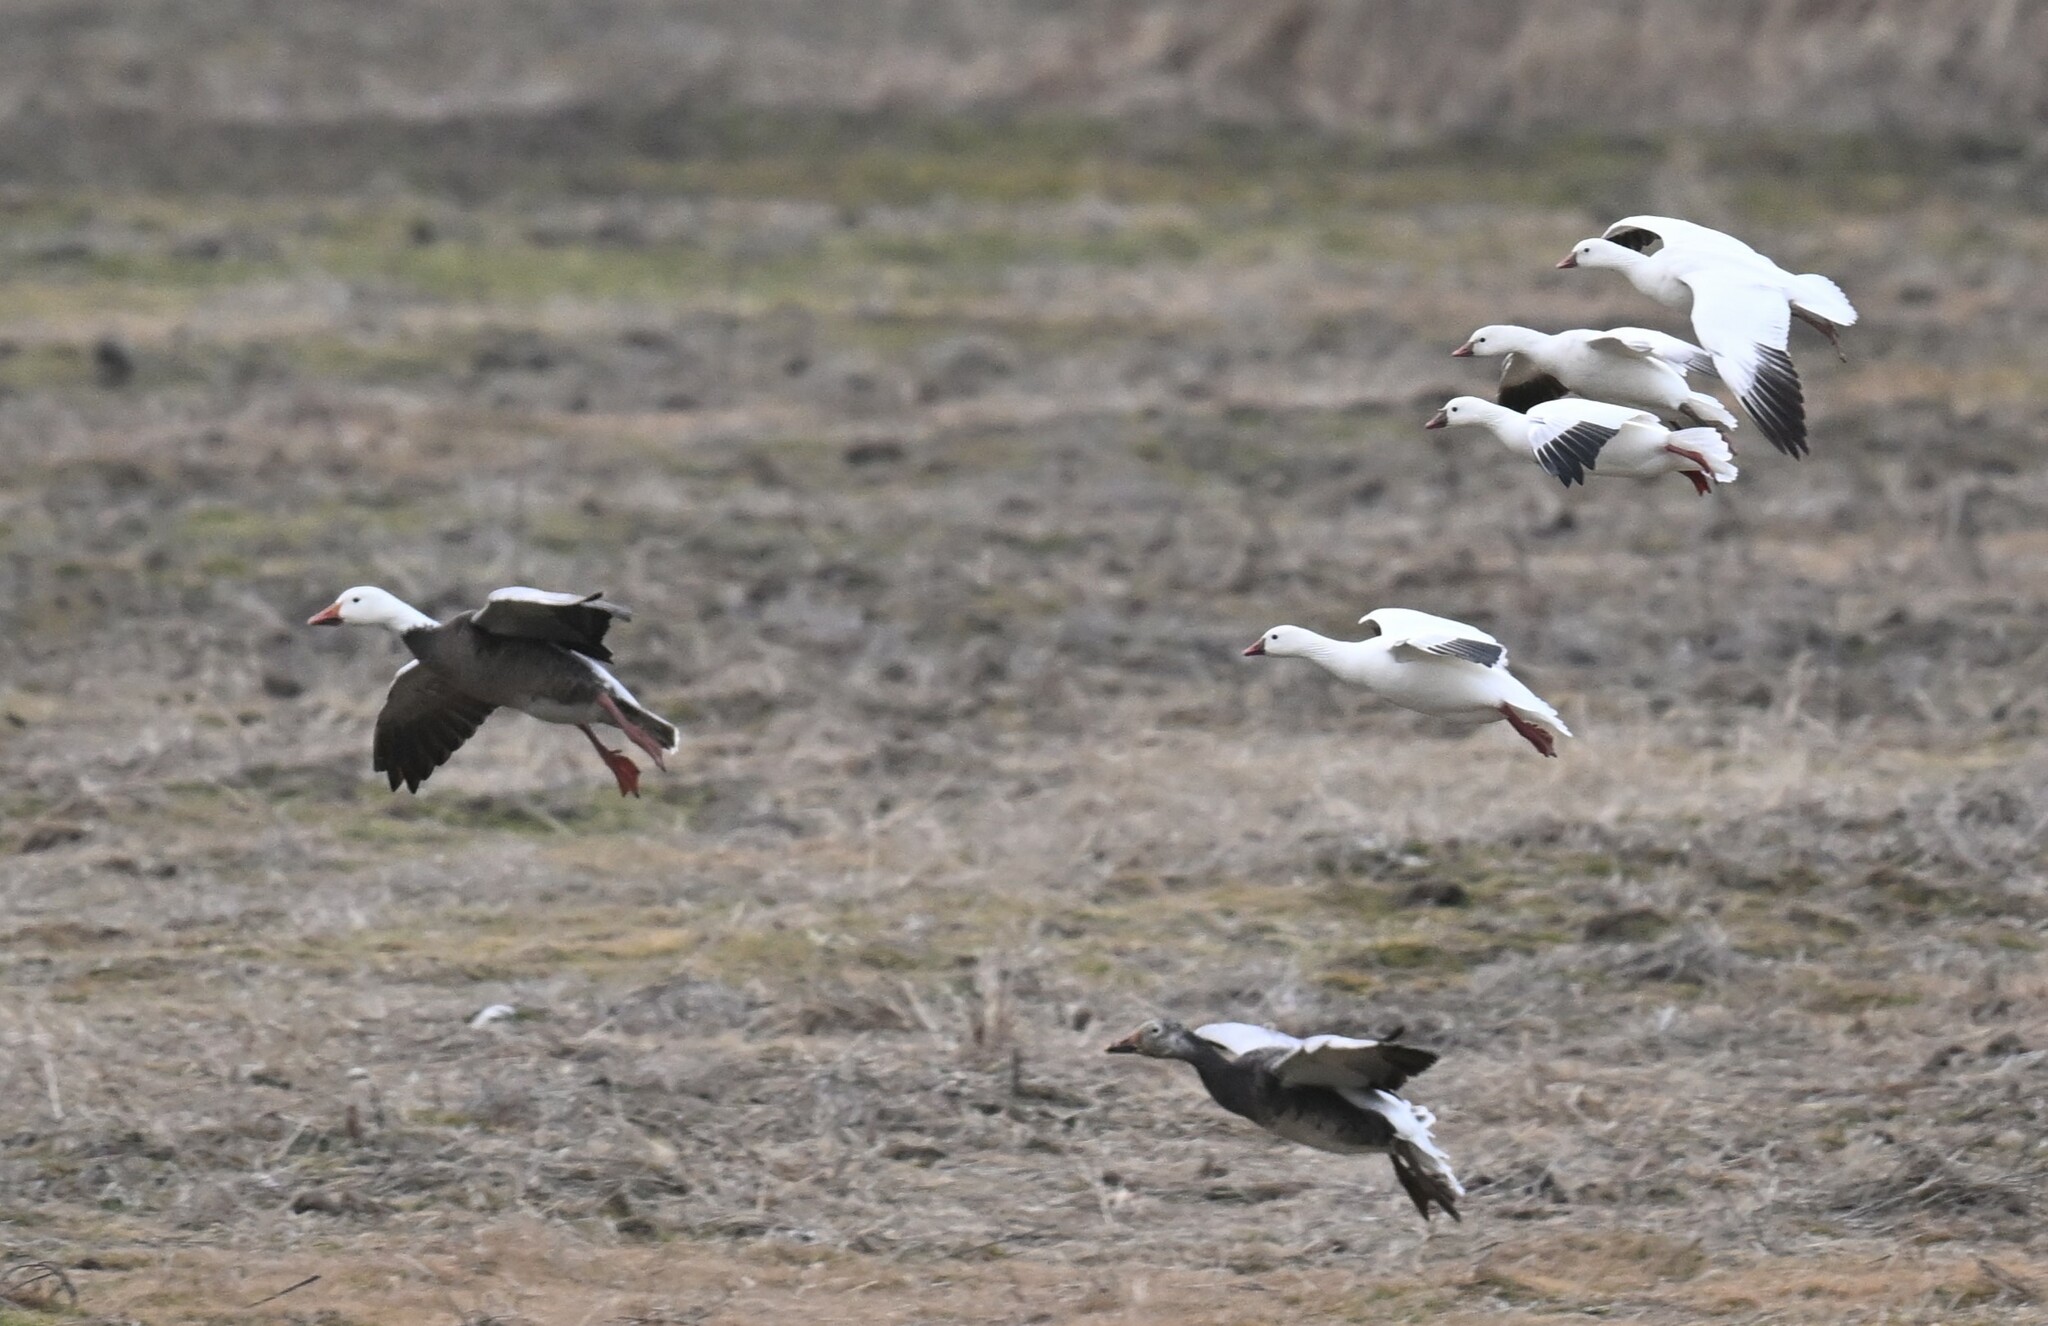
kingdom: Animalia
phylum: Chordata
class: Aves
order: Anseriformes
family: Anatidae
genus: Anser
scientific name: Anser rossii
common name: Ross's goose
